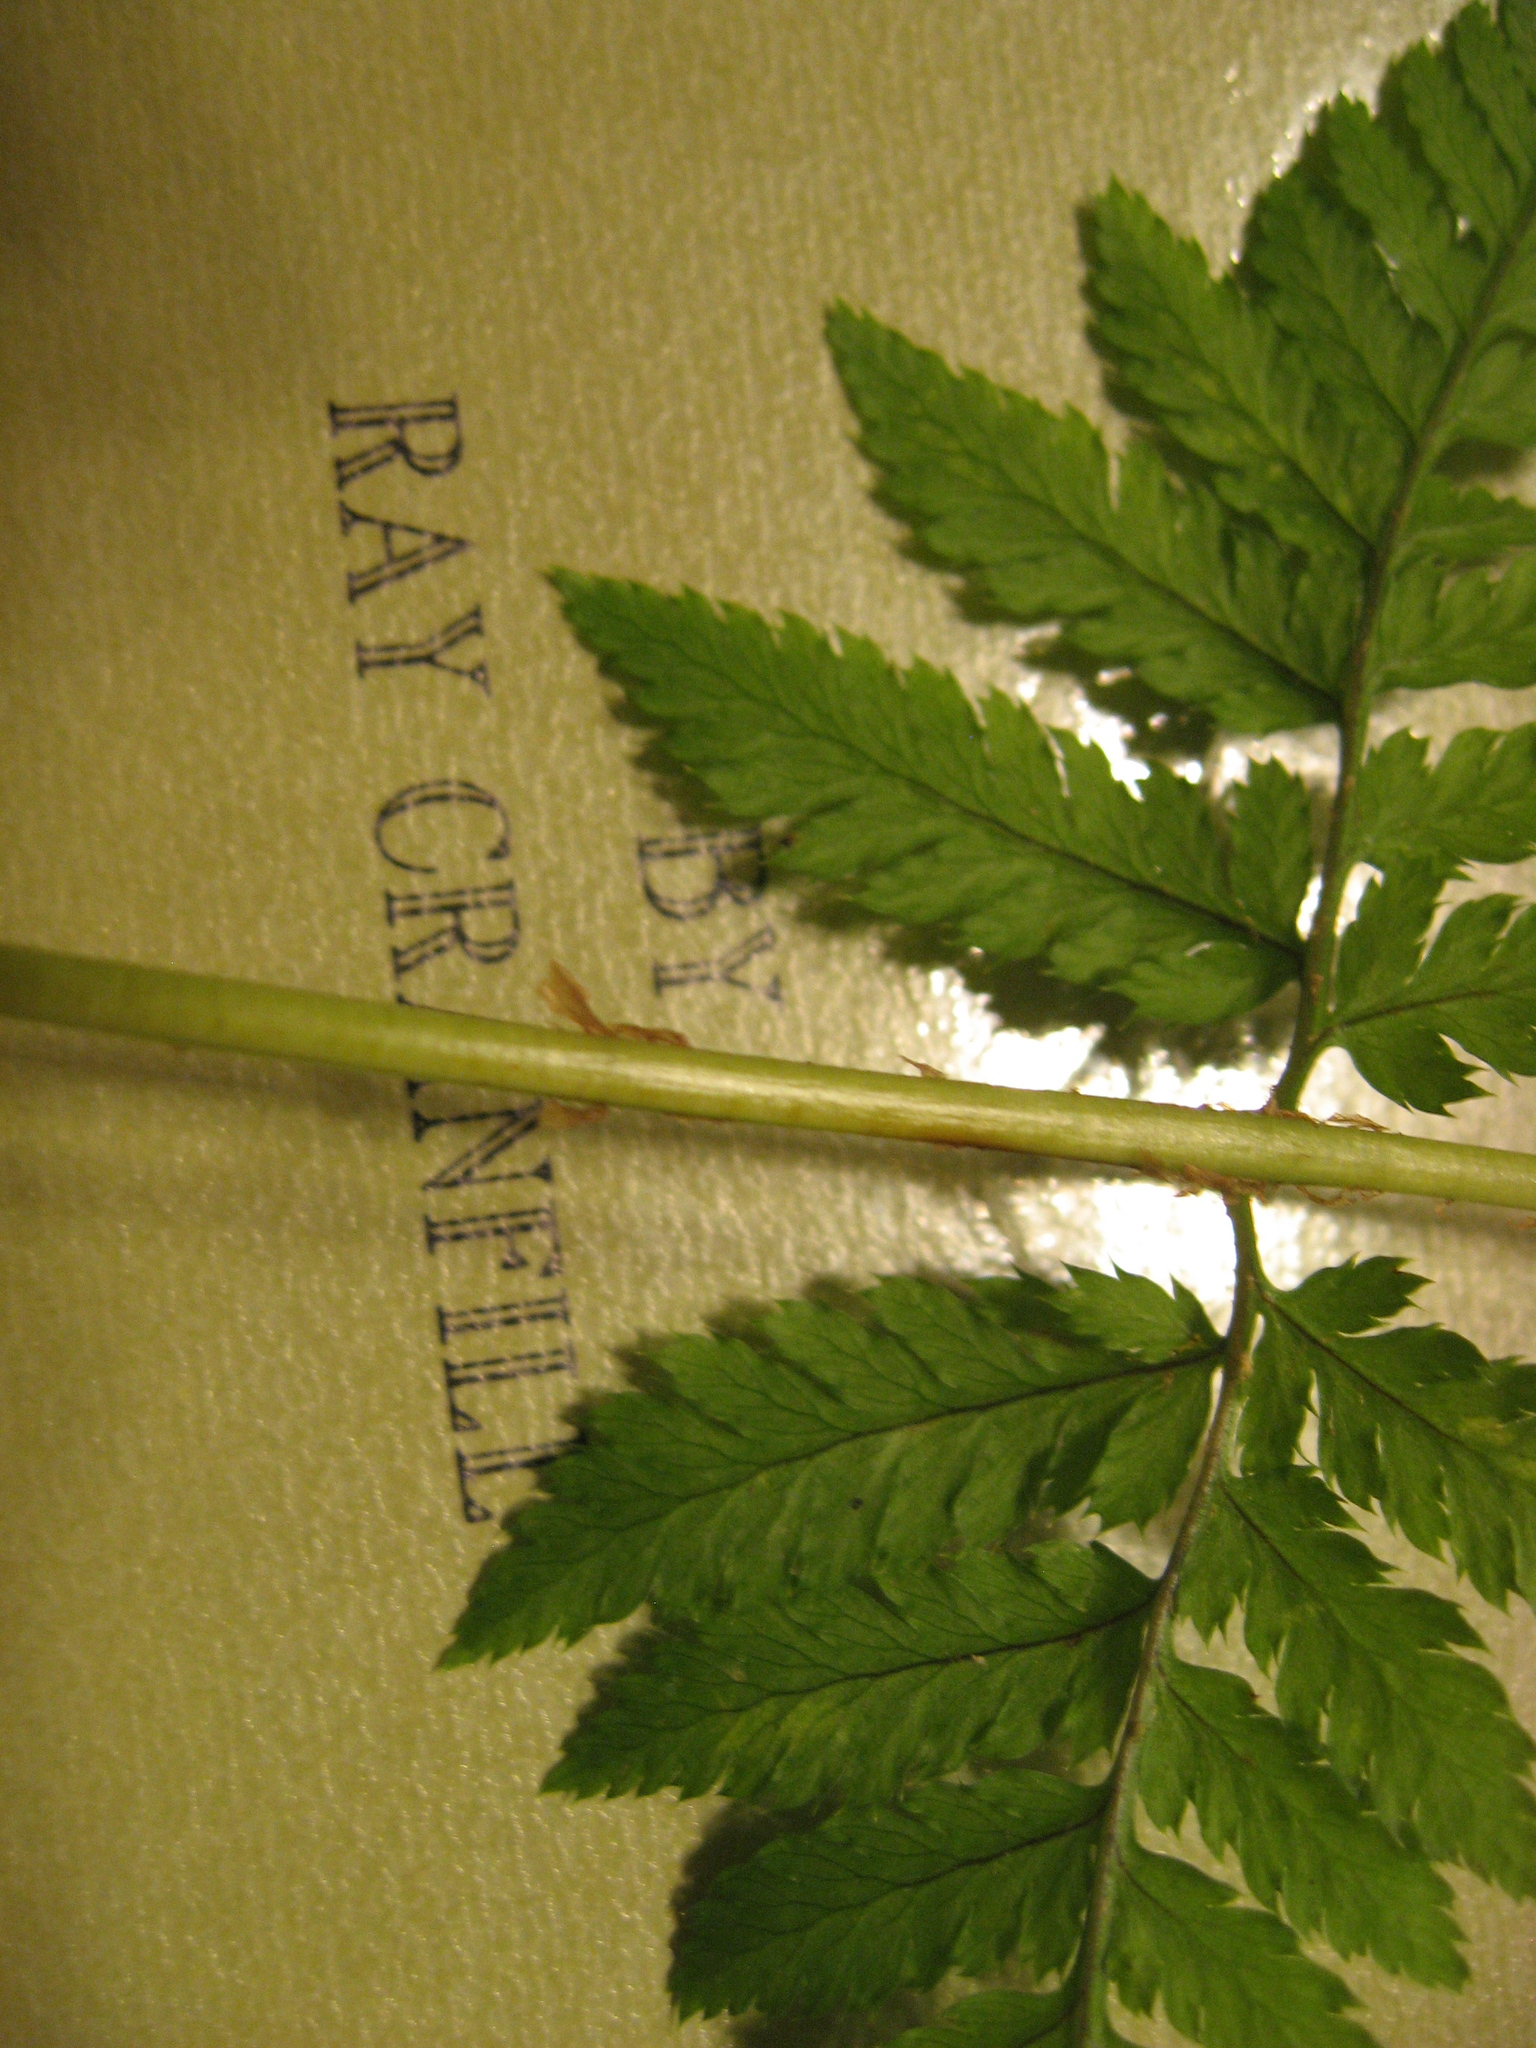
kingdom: Plantae
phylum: Tracheophyta
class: Polypodiopsida
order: Polypodiales
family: Dryopteridaceae
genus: Dryopteris
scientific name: Dryopteris carthusiana
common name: Narrow buckler-fern
